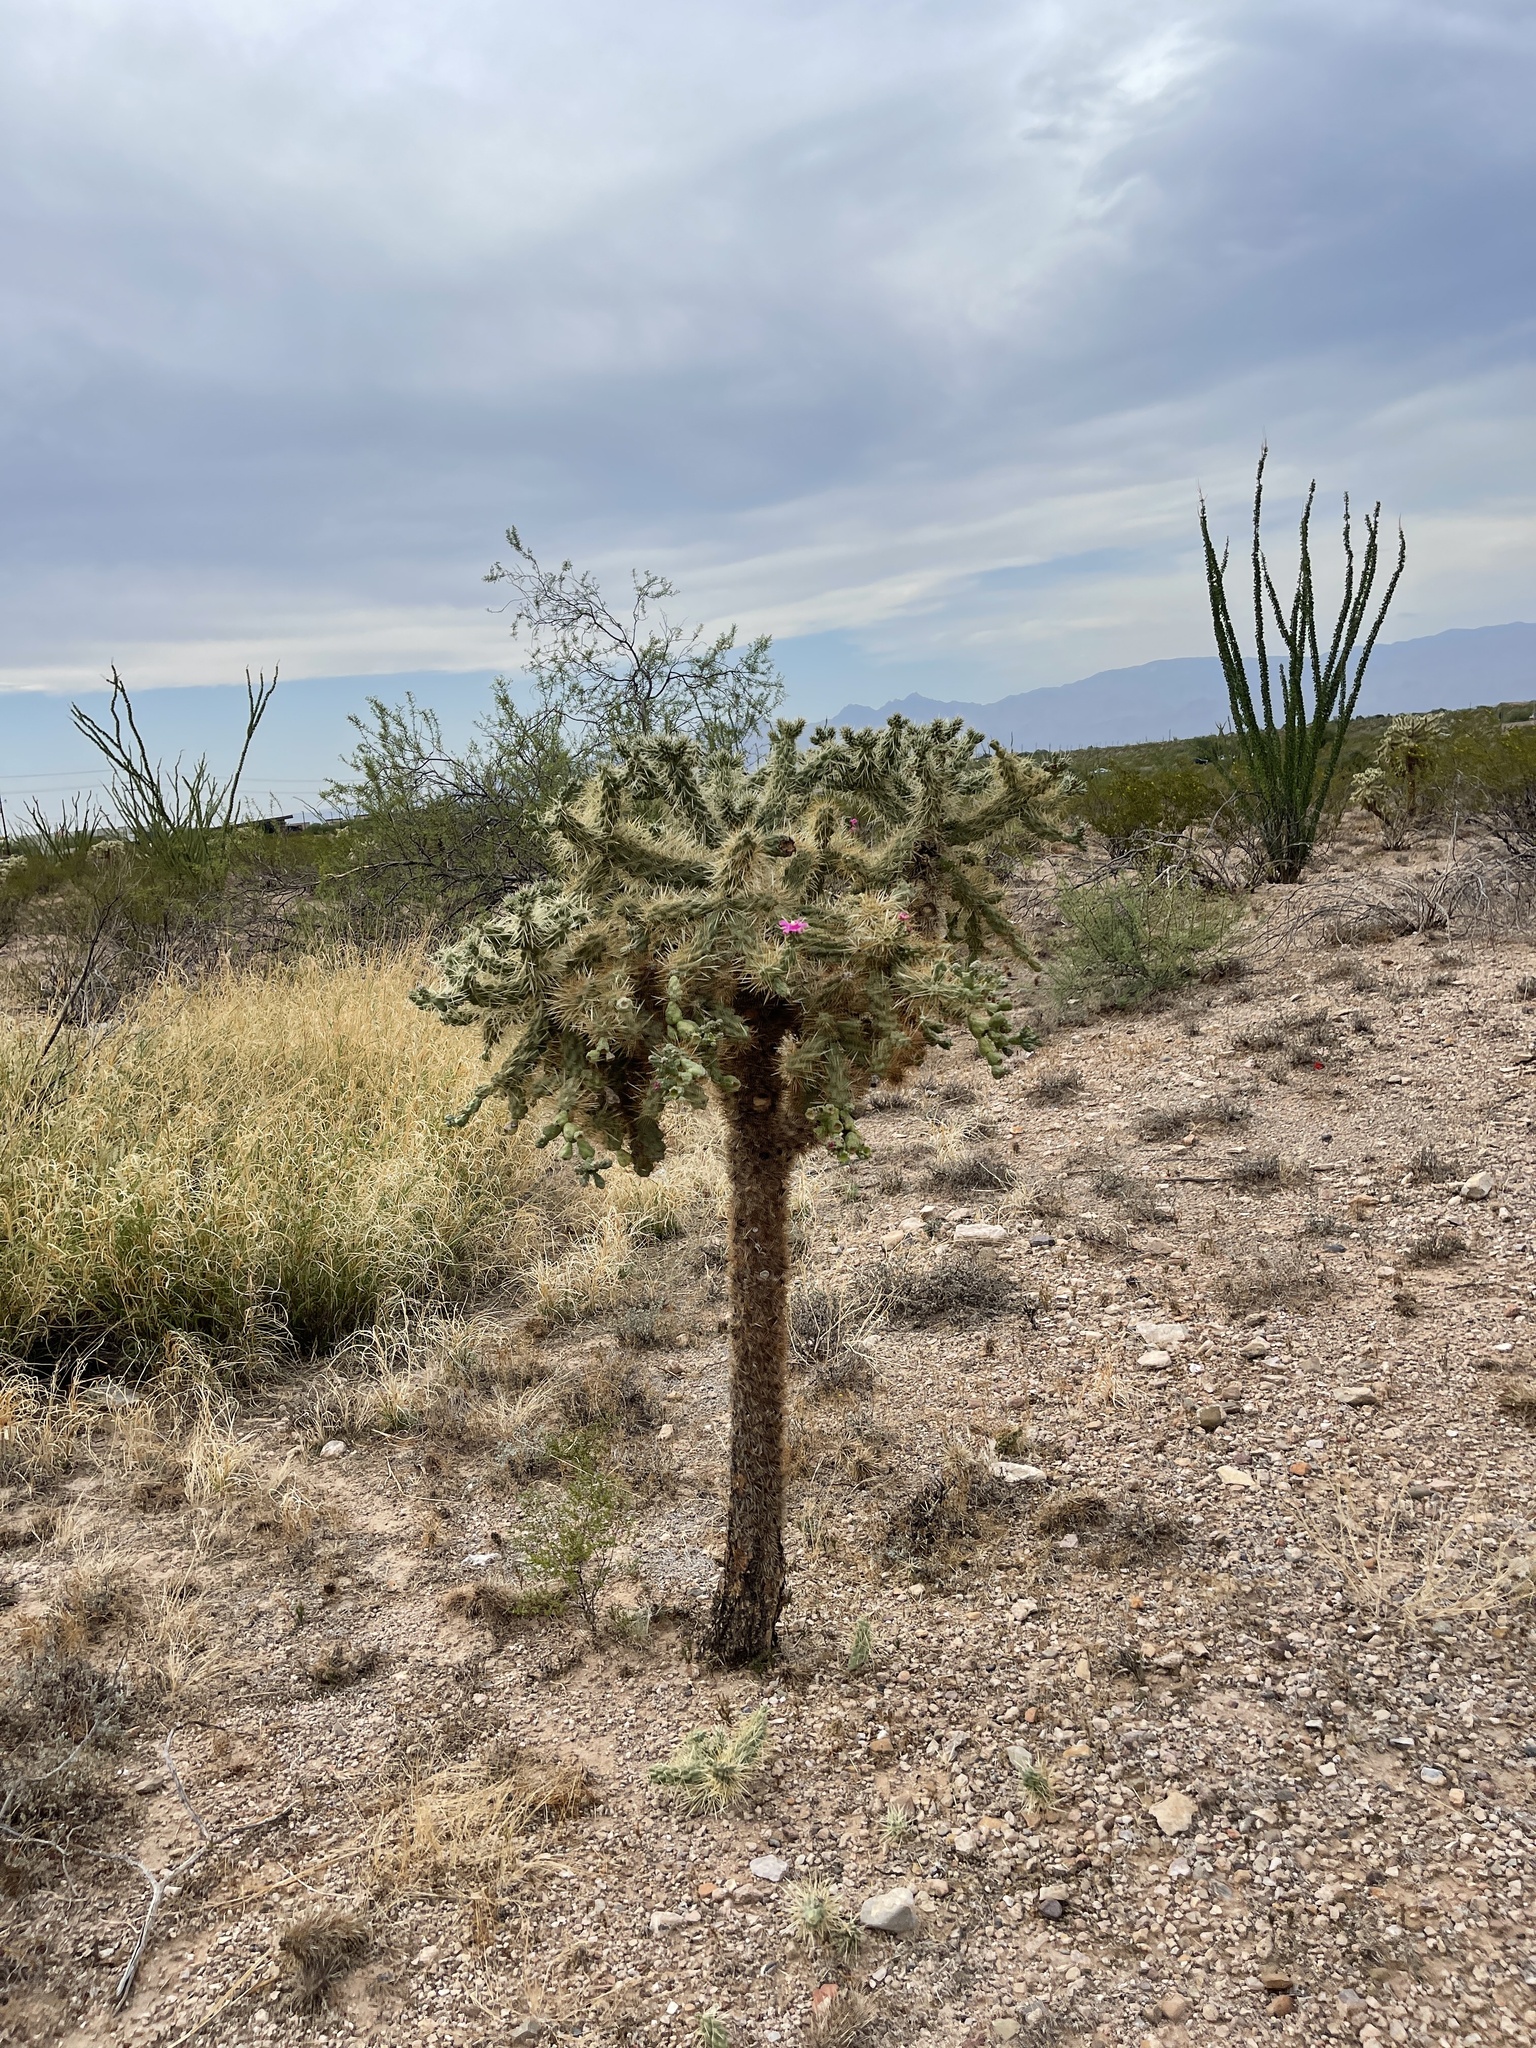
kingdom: Plantae
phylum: Tracheophyta
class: Magnoliopsida
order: Caryophyllales
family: Cactaceae
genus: Cylindropuntia
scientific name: Cylindropuntia fulgida
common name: Jumping cholla
